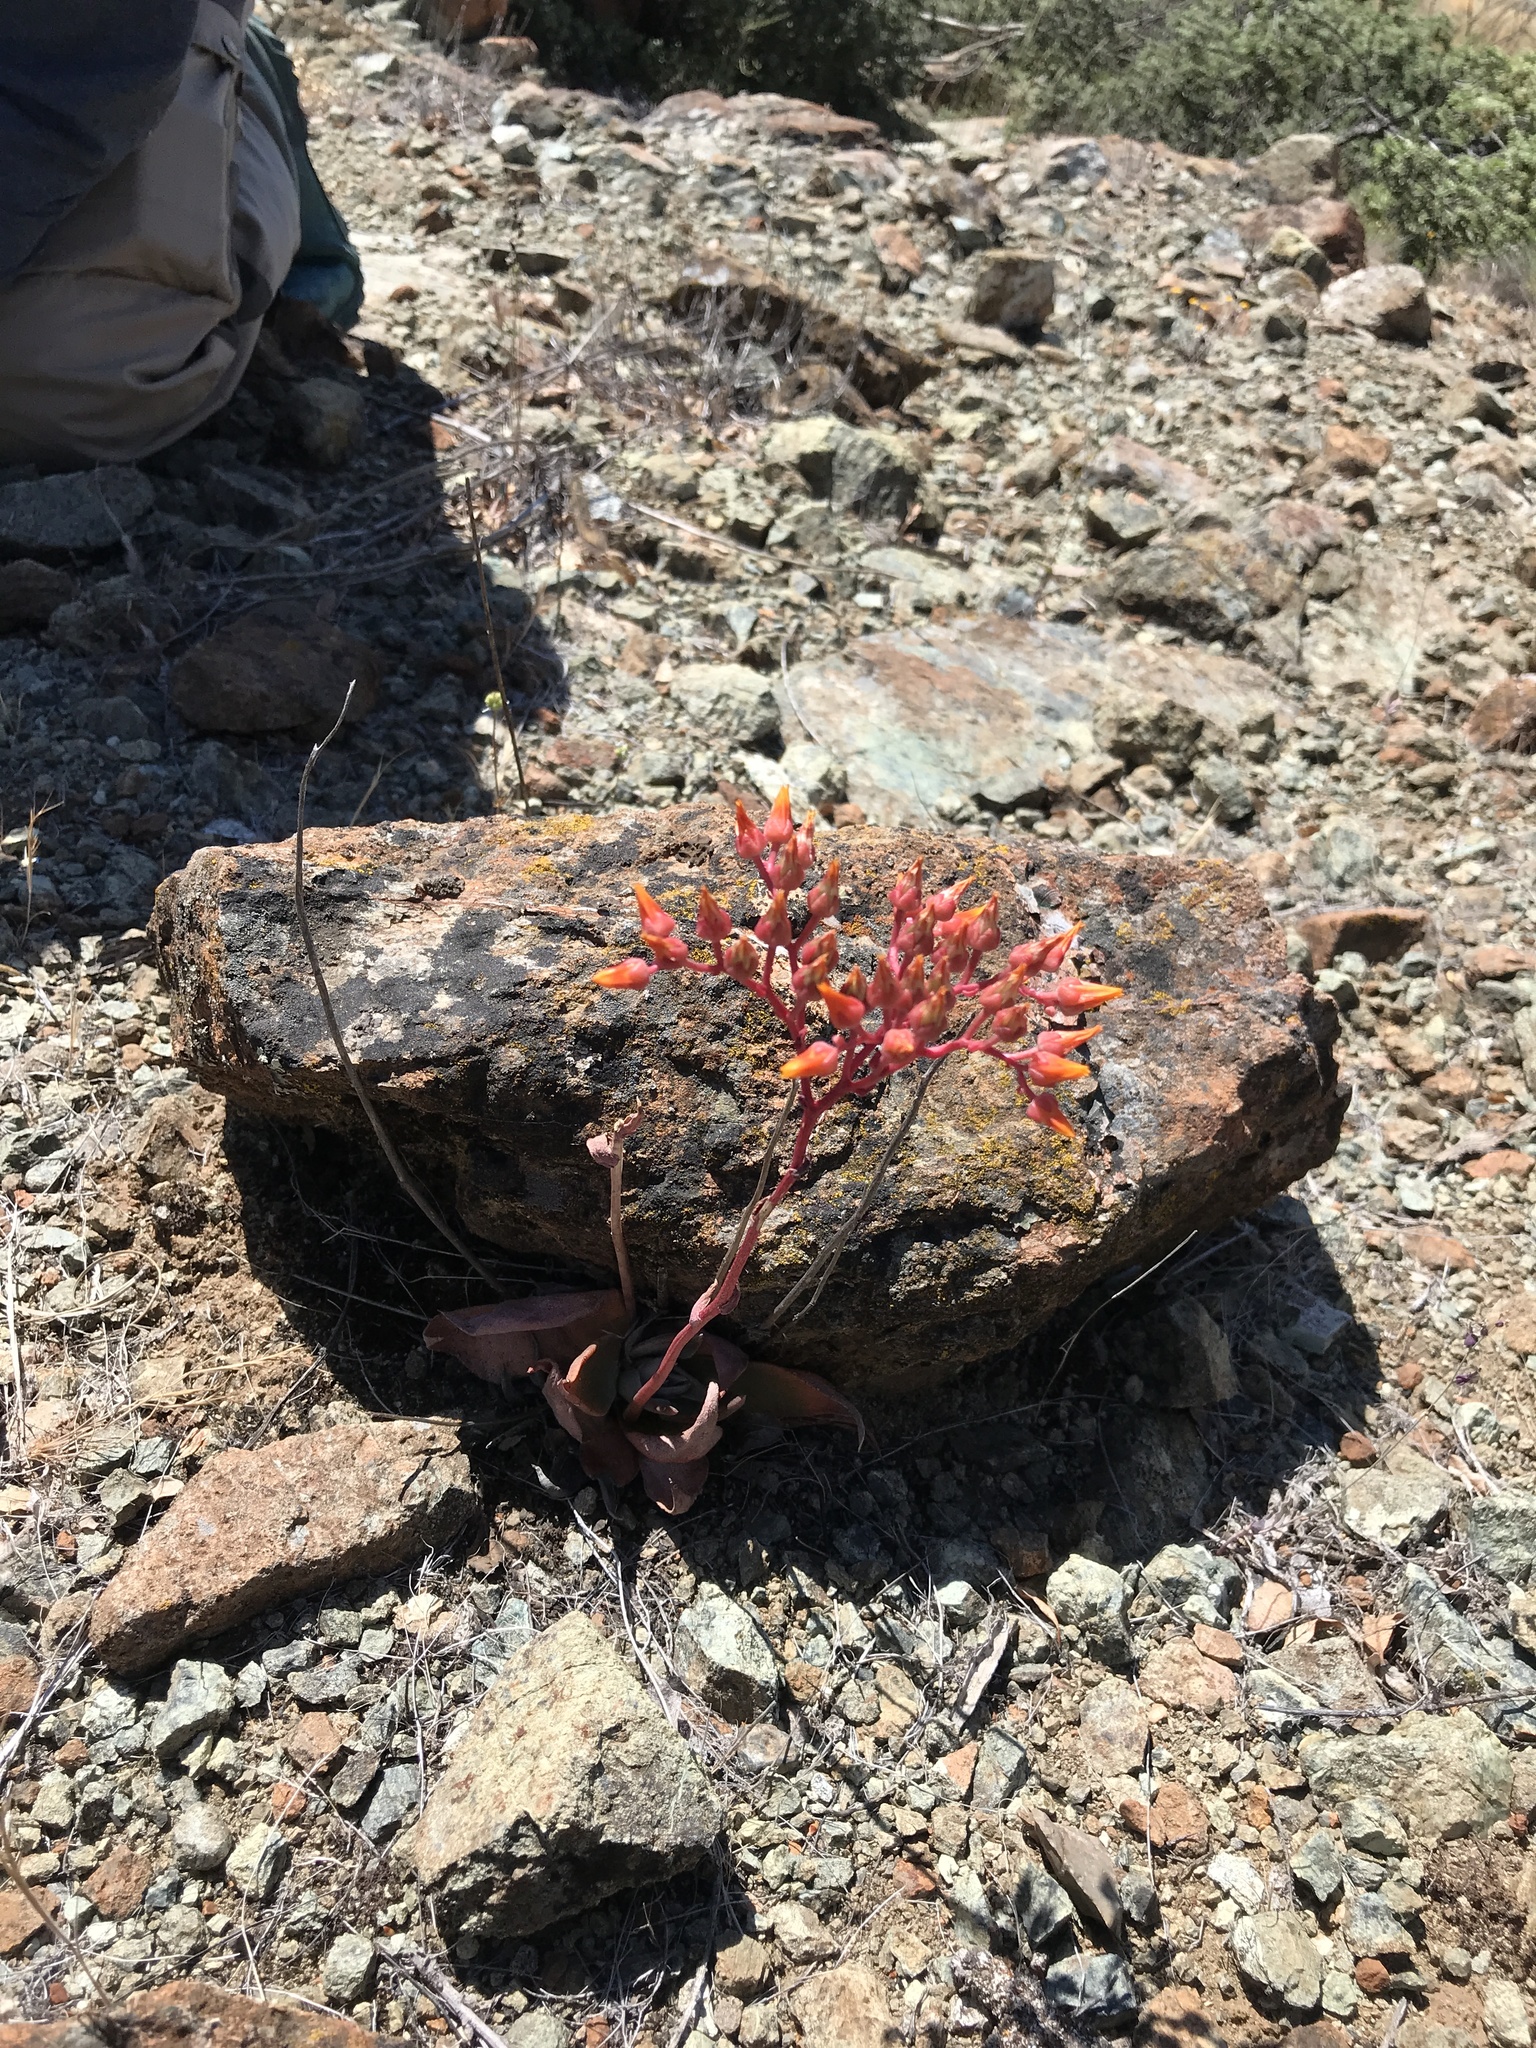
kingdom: Plantae
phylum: Tracheophyta
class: Magnoliopsida
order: Saxifragales
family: Crassulaceae
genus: Dudleya
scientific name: Dudleya cymosa
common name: Canyon dudleya
